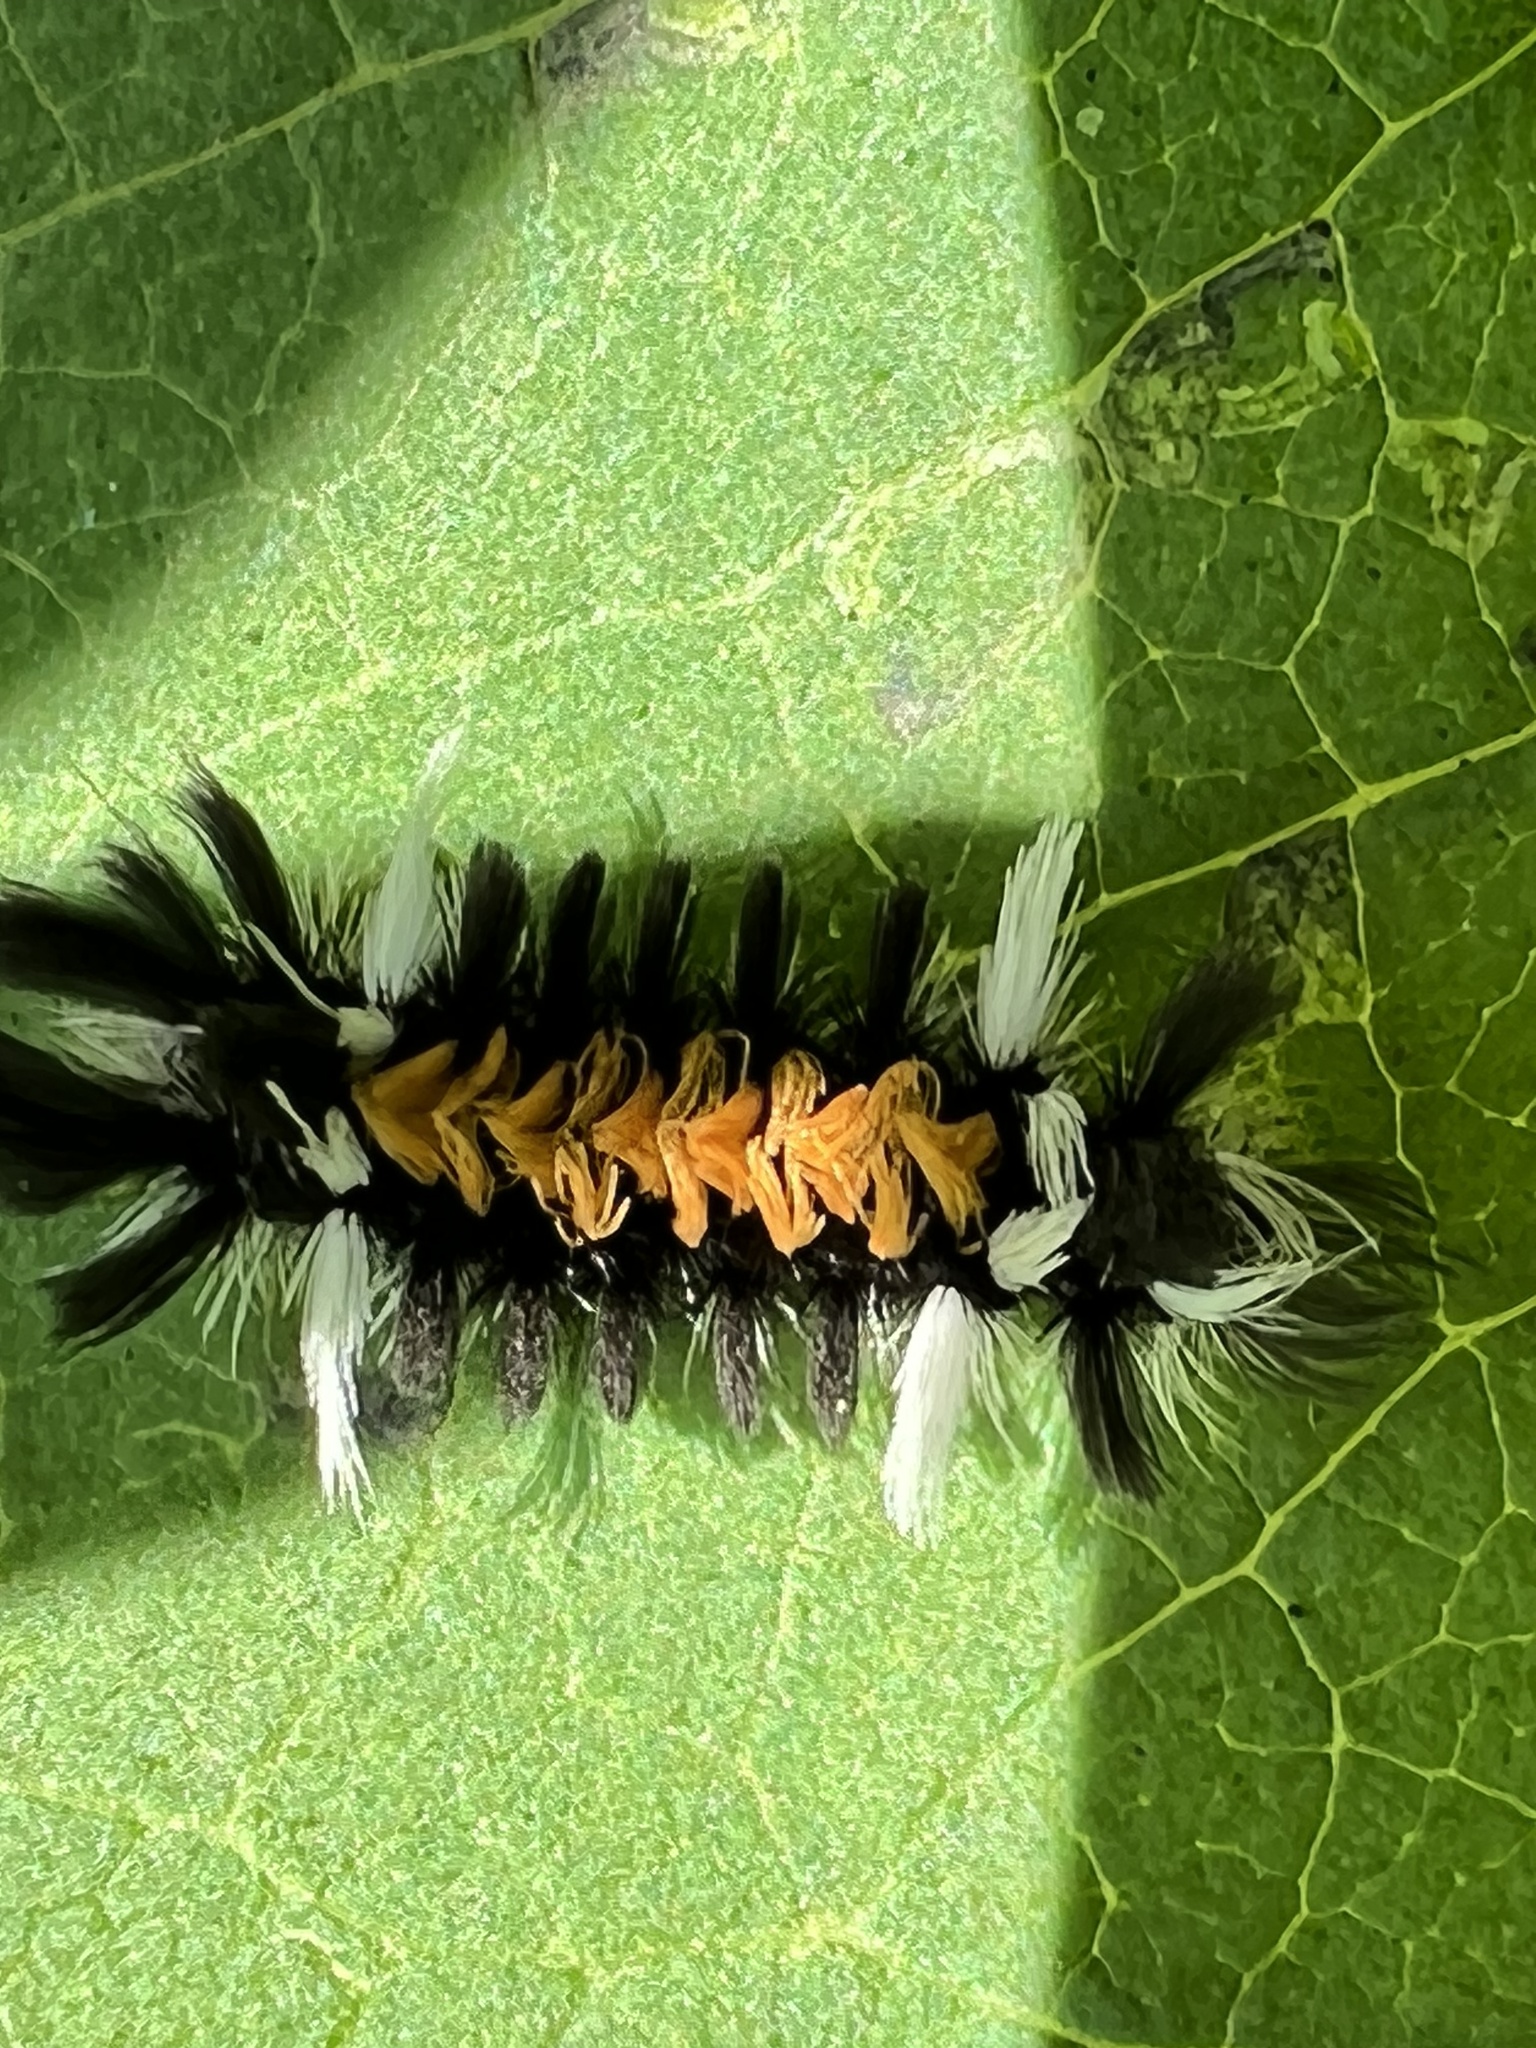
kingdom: Animalia
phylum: Arthropoda
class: Insecta
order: Lepidoptera
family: Erebidae
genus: Euchaetes
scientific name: Euchaetes egle
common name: Milkweed tussock moth
